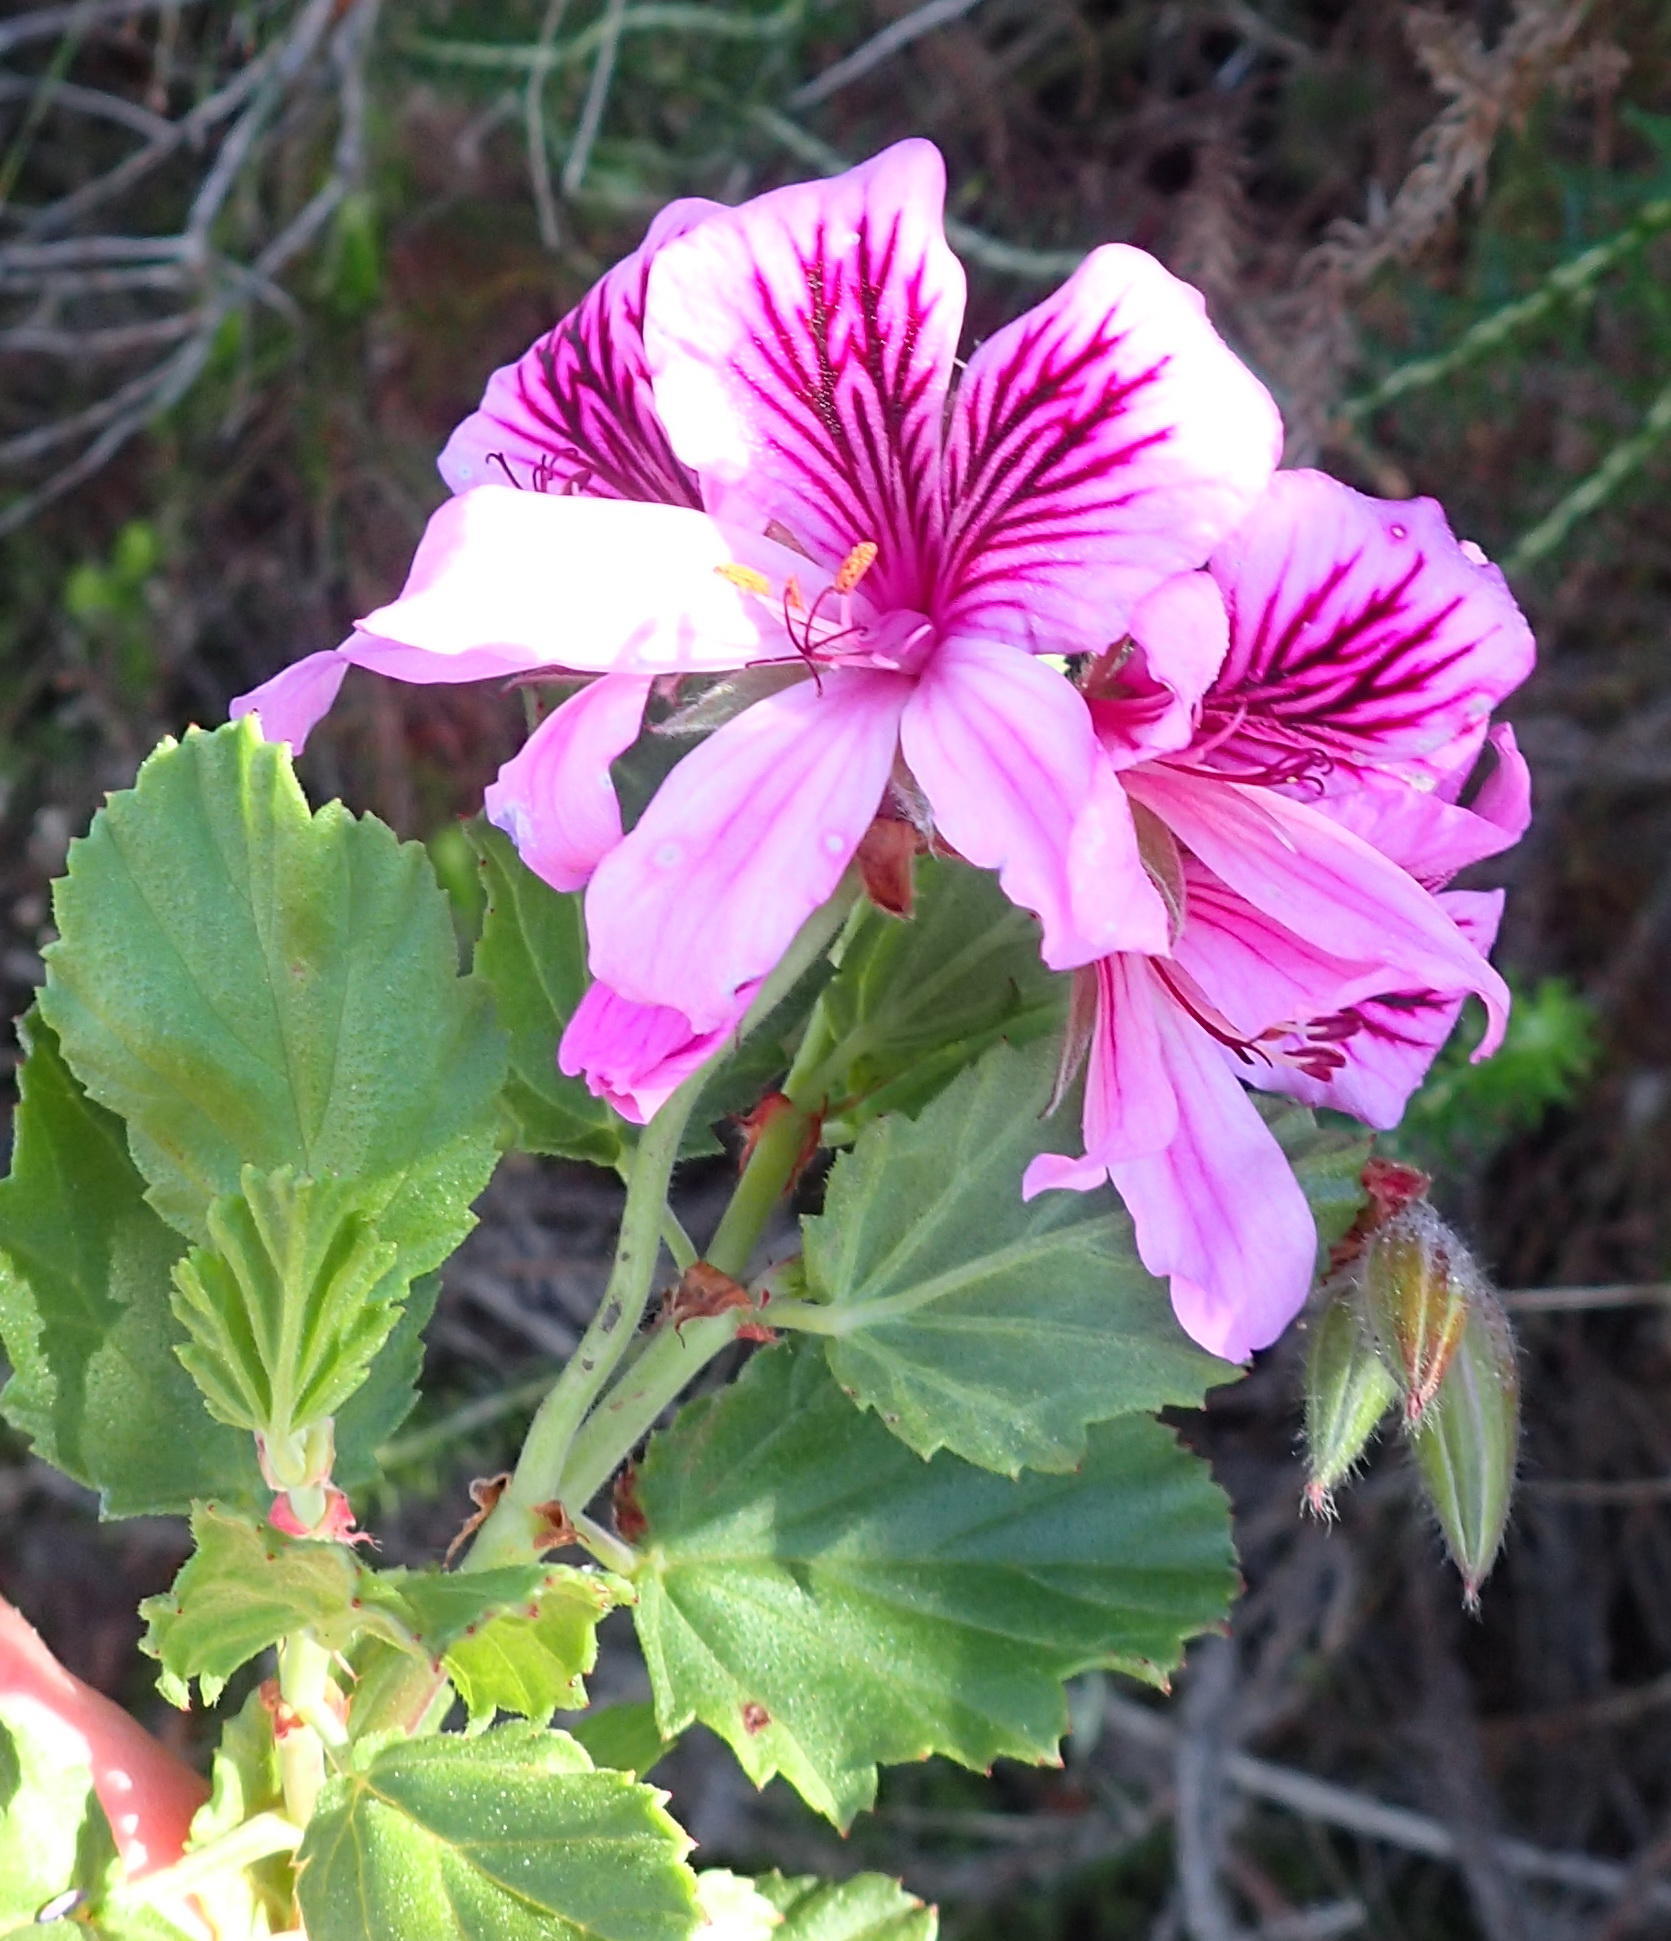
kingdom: Plantae
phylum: Tracheophyta
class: Magnoliopsida
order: Geraniales
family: Geraniaceae
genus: Pelargonium
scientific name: Pelargonium betulinum
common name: Birch-leaf pelargonium
